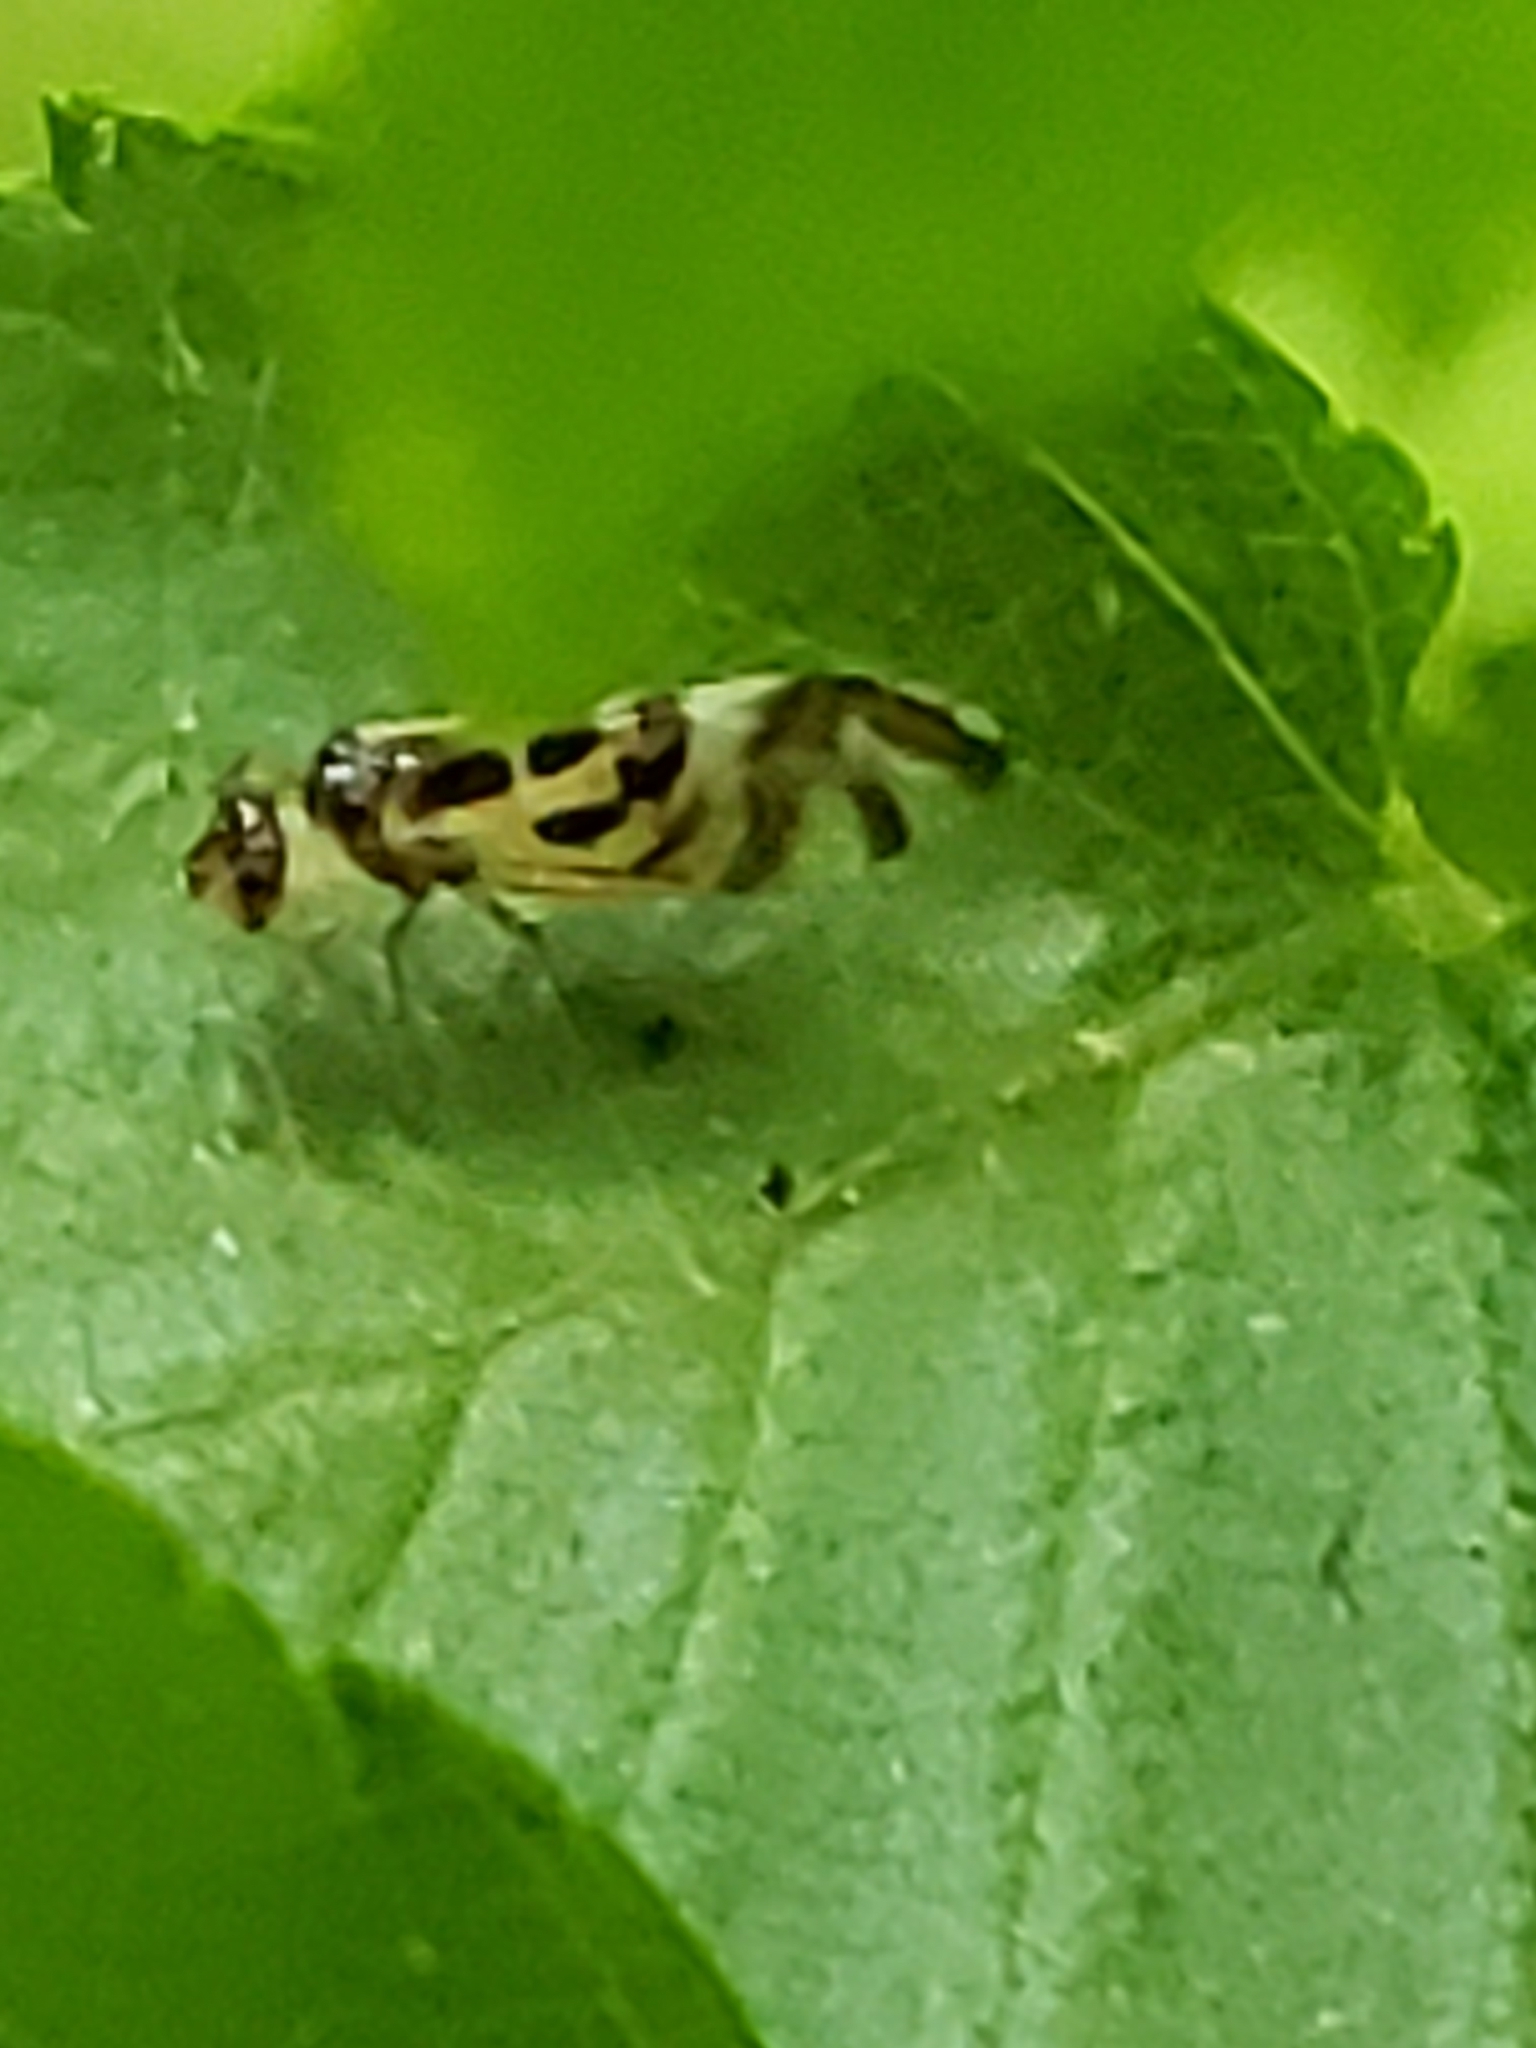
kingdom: Animalia
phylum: Arthropoda
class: Insecta
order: Psocodea
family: Stenopsocidae
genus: Graphopsocus
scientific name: Graphopsocus cruciatus
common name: Lizard bark louse
